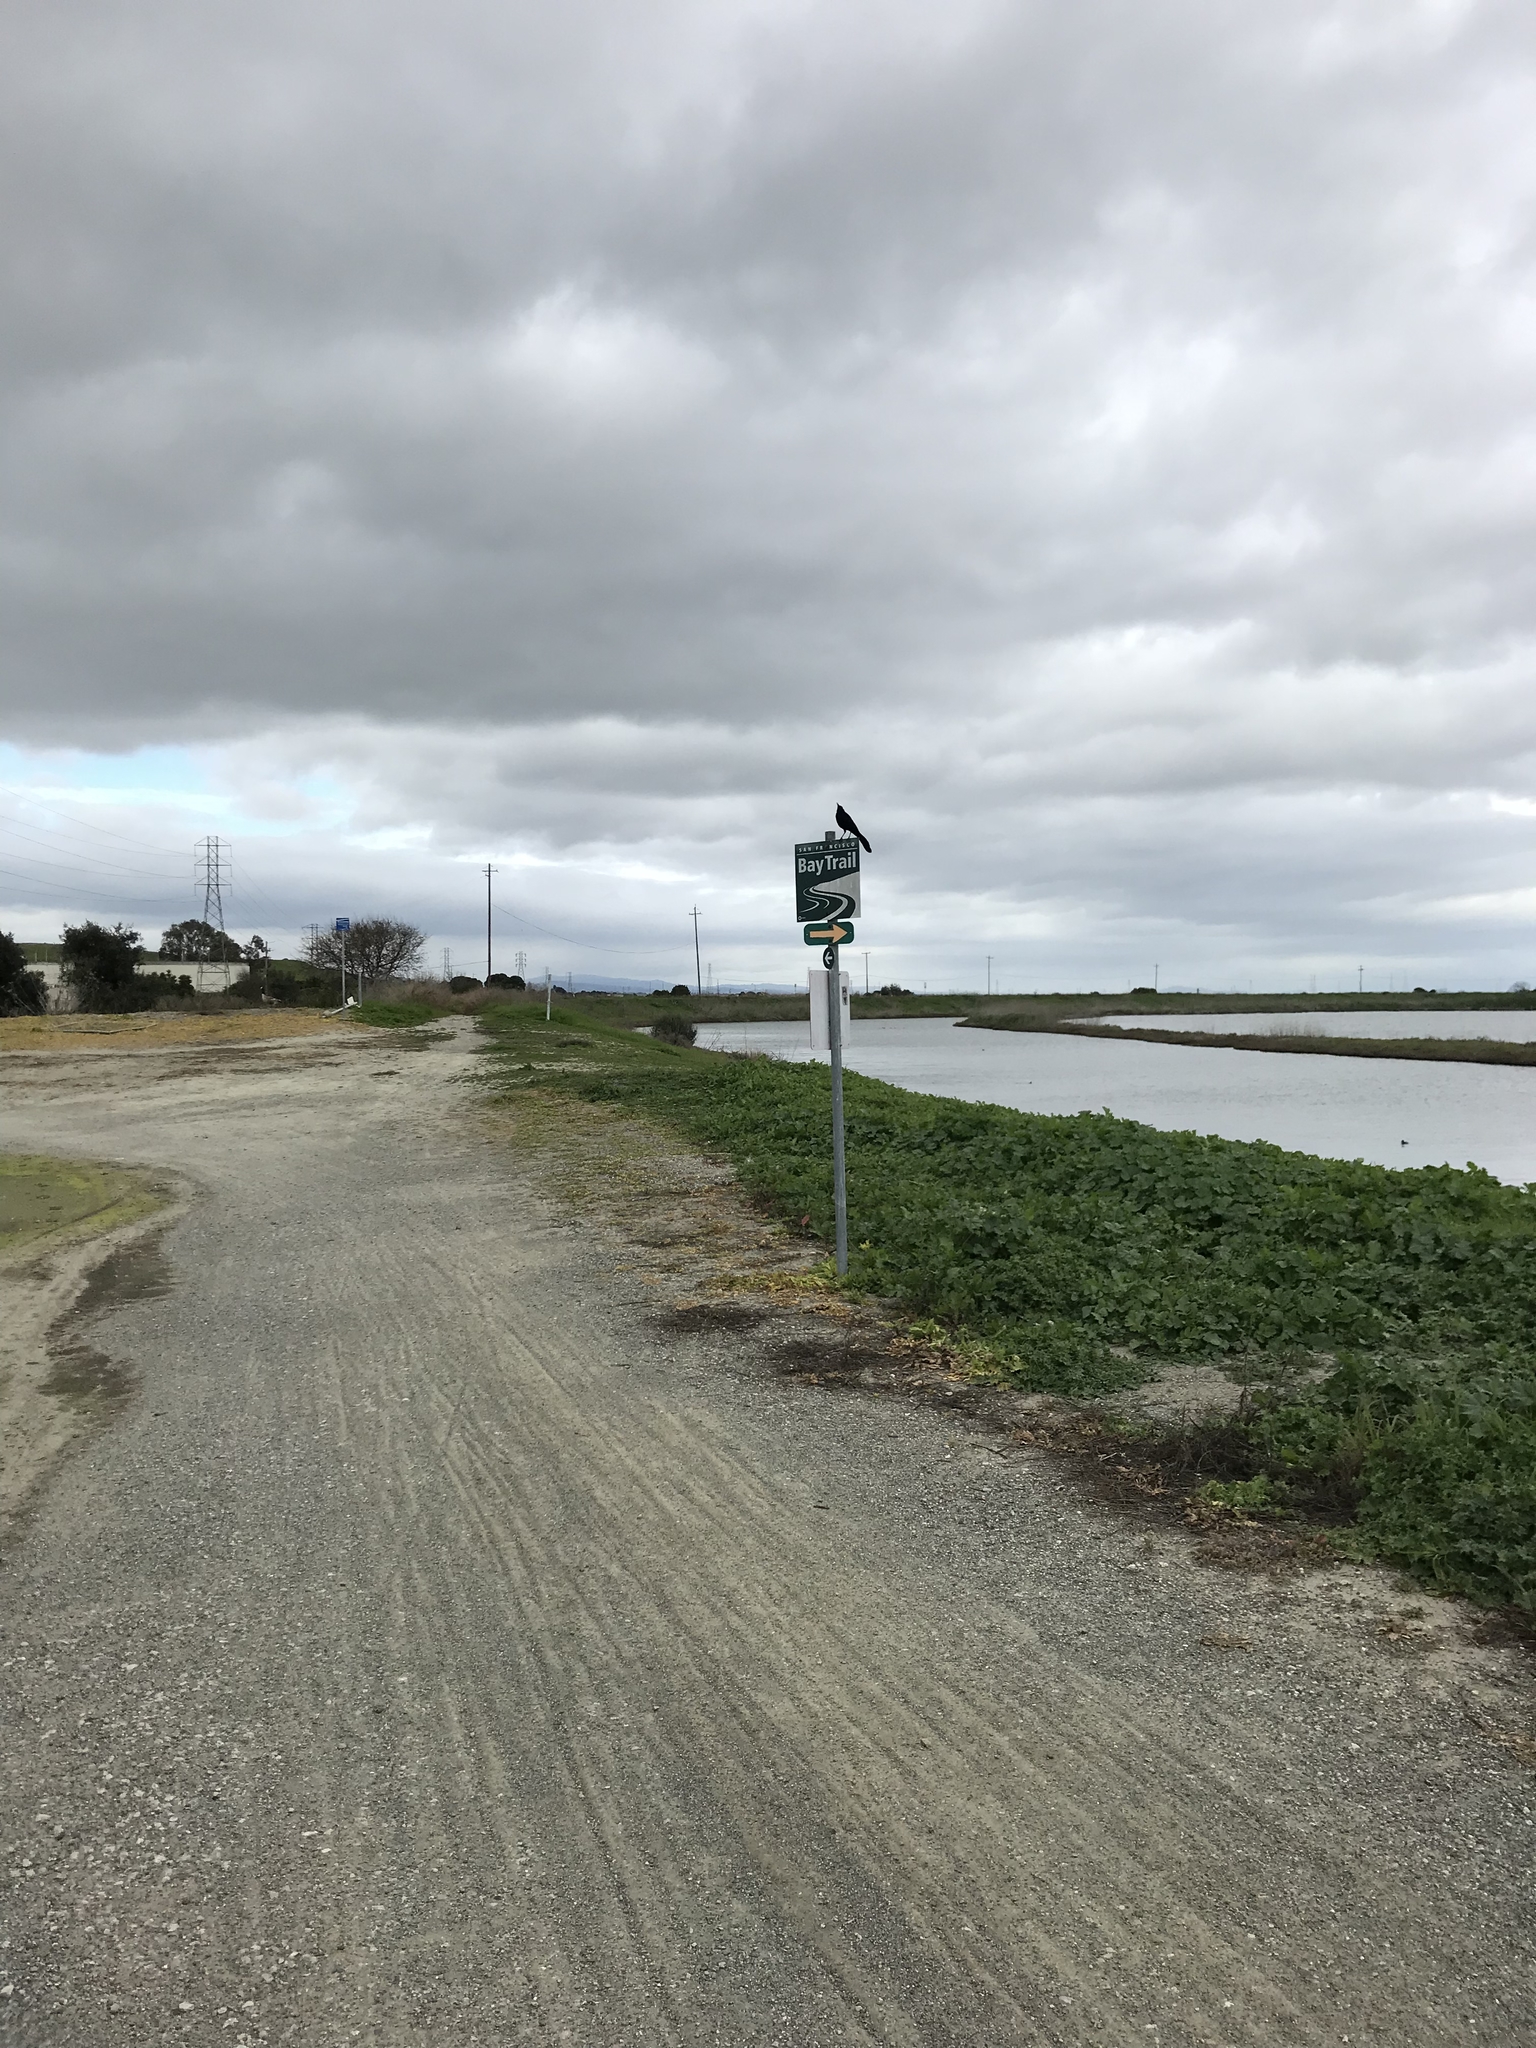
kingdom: Animalia
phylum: Chordata
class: Aves
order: Passeriformes
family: Icteridae
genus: Quiscalus
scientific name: Quiscalus mexicanus
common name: Great-tailed grackle
